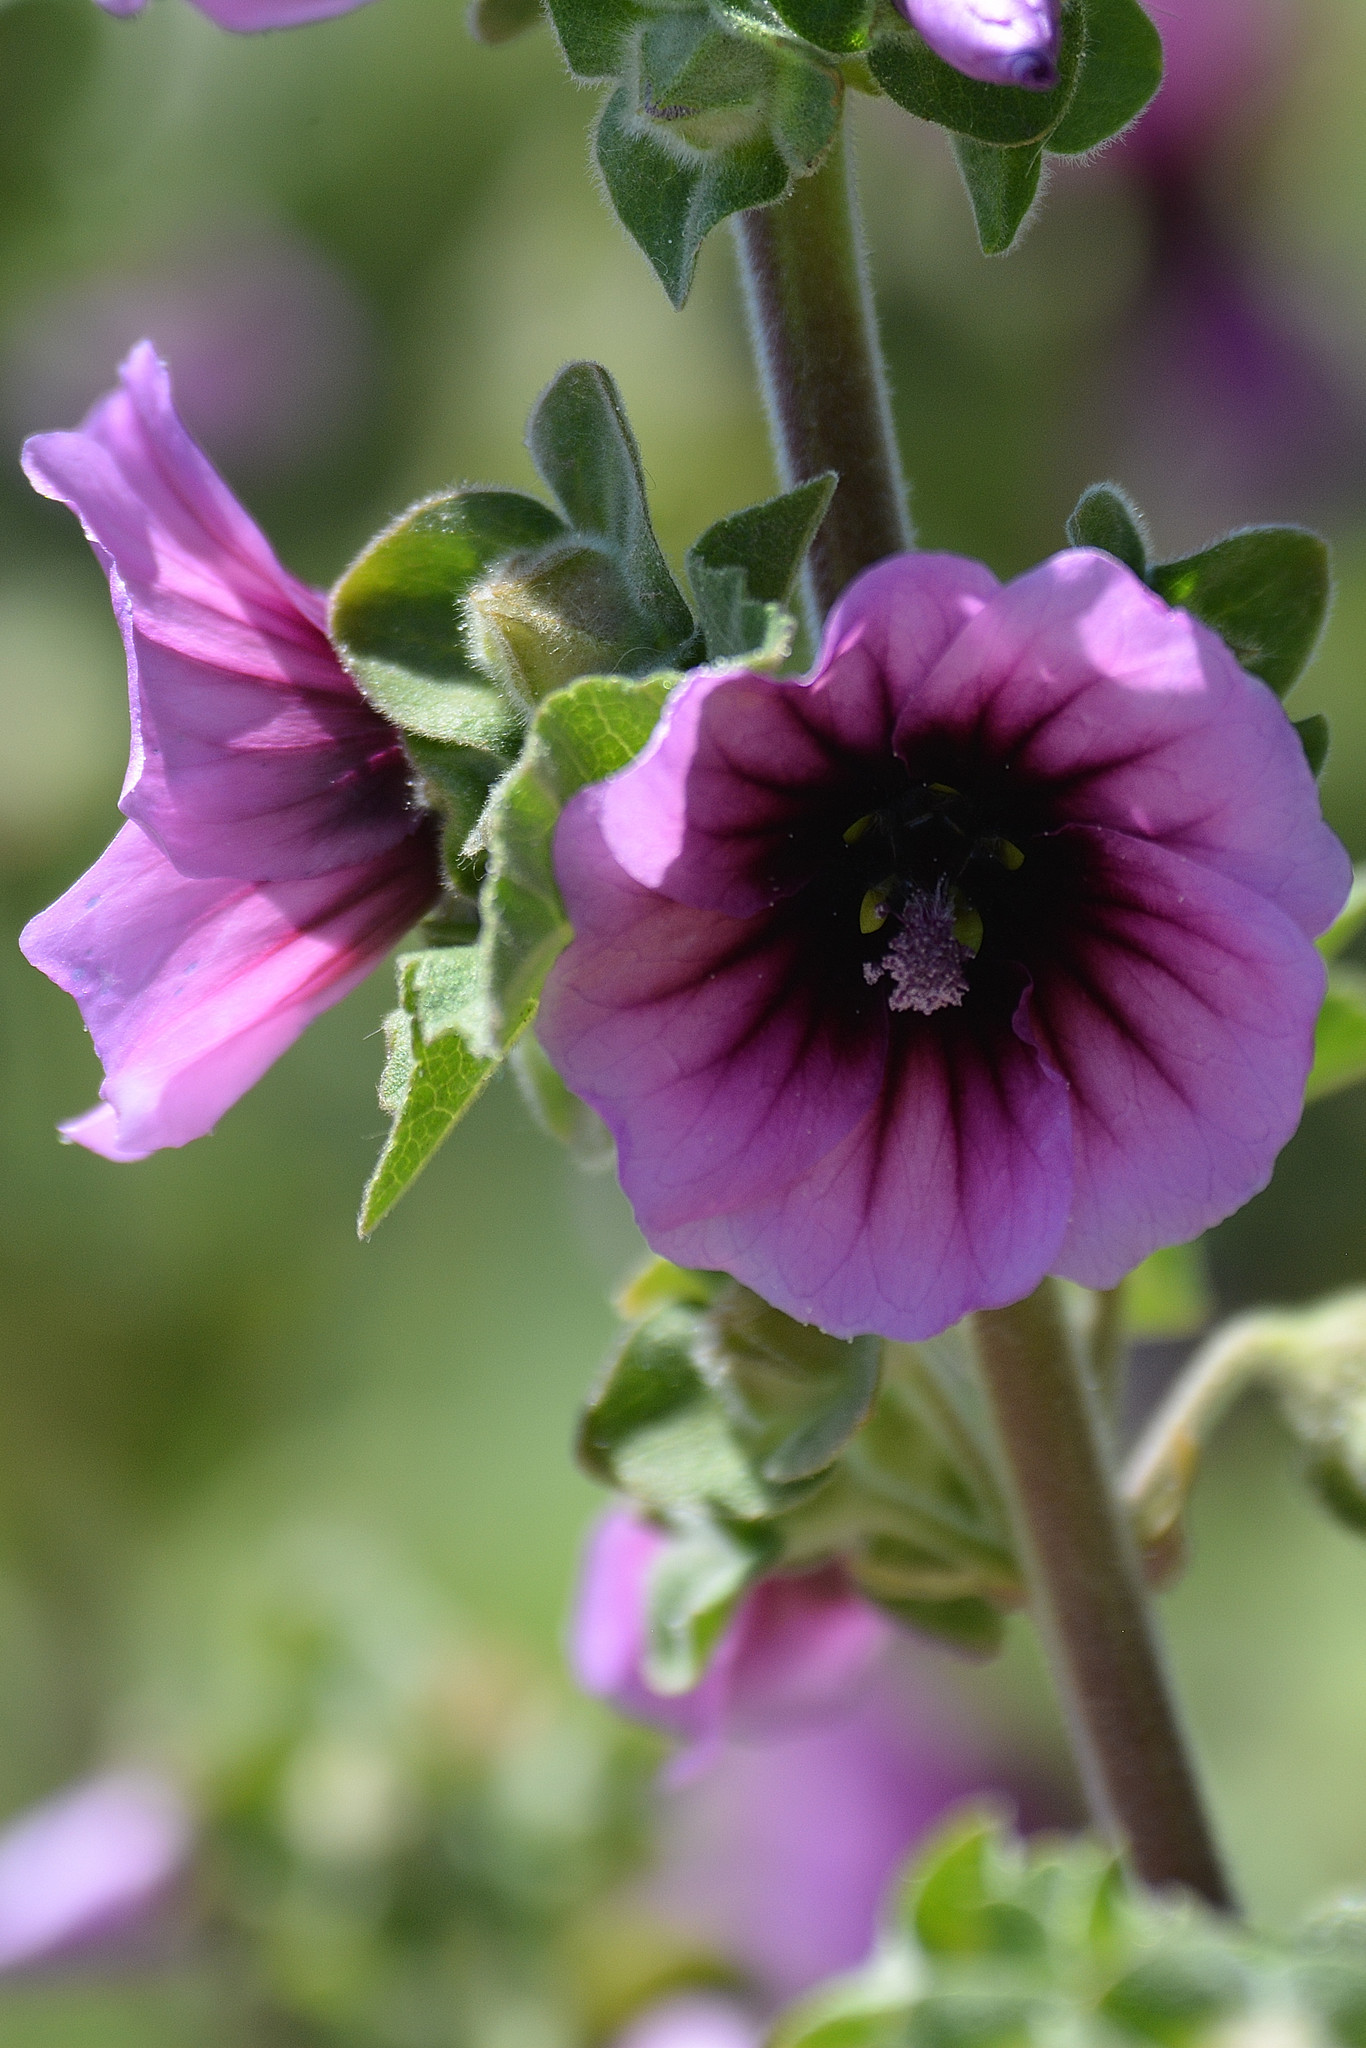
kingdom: Plantae
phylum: Tracheophyta
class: Magnoliopsida
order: Malvales
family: Malvaceae
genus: Malva
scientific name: Malva arborea
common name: Tree mallow
